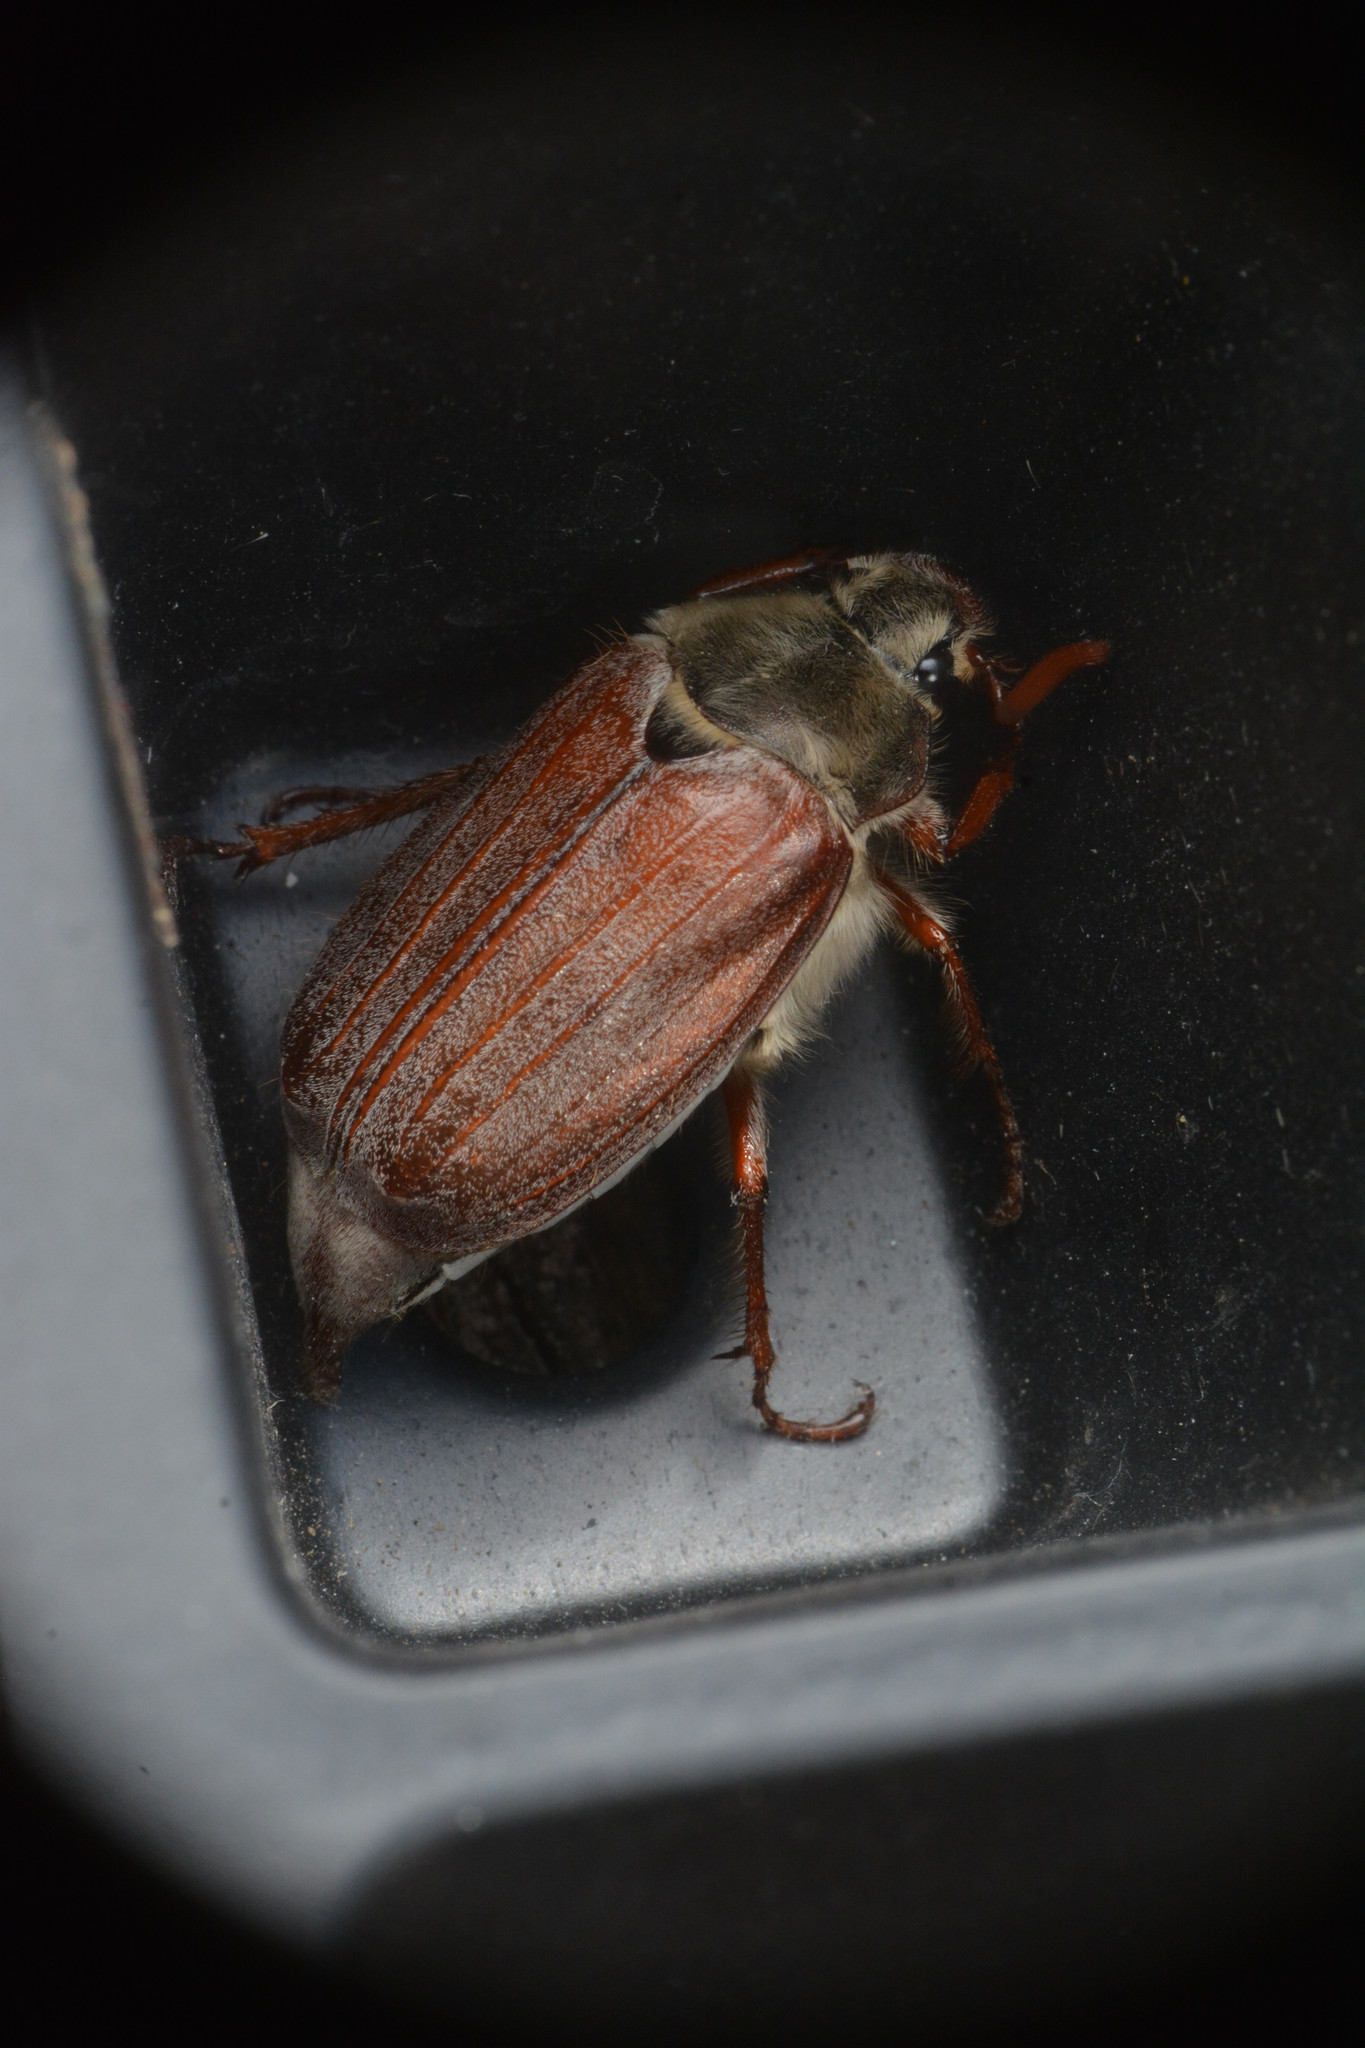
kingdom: Animalia
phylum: Arthropoda
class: Insecta
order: Coleoptera
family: Scarabaeidae
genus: Melolontha
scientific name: Melolontha melolontha
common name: Cockchafer maybeetle
